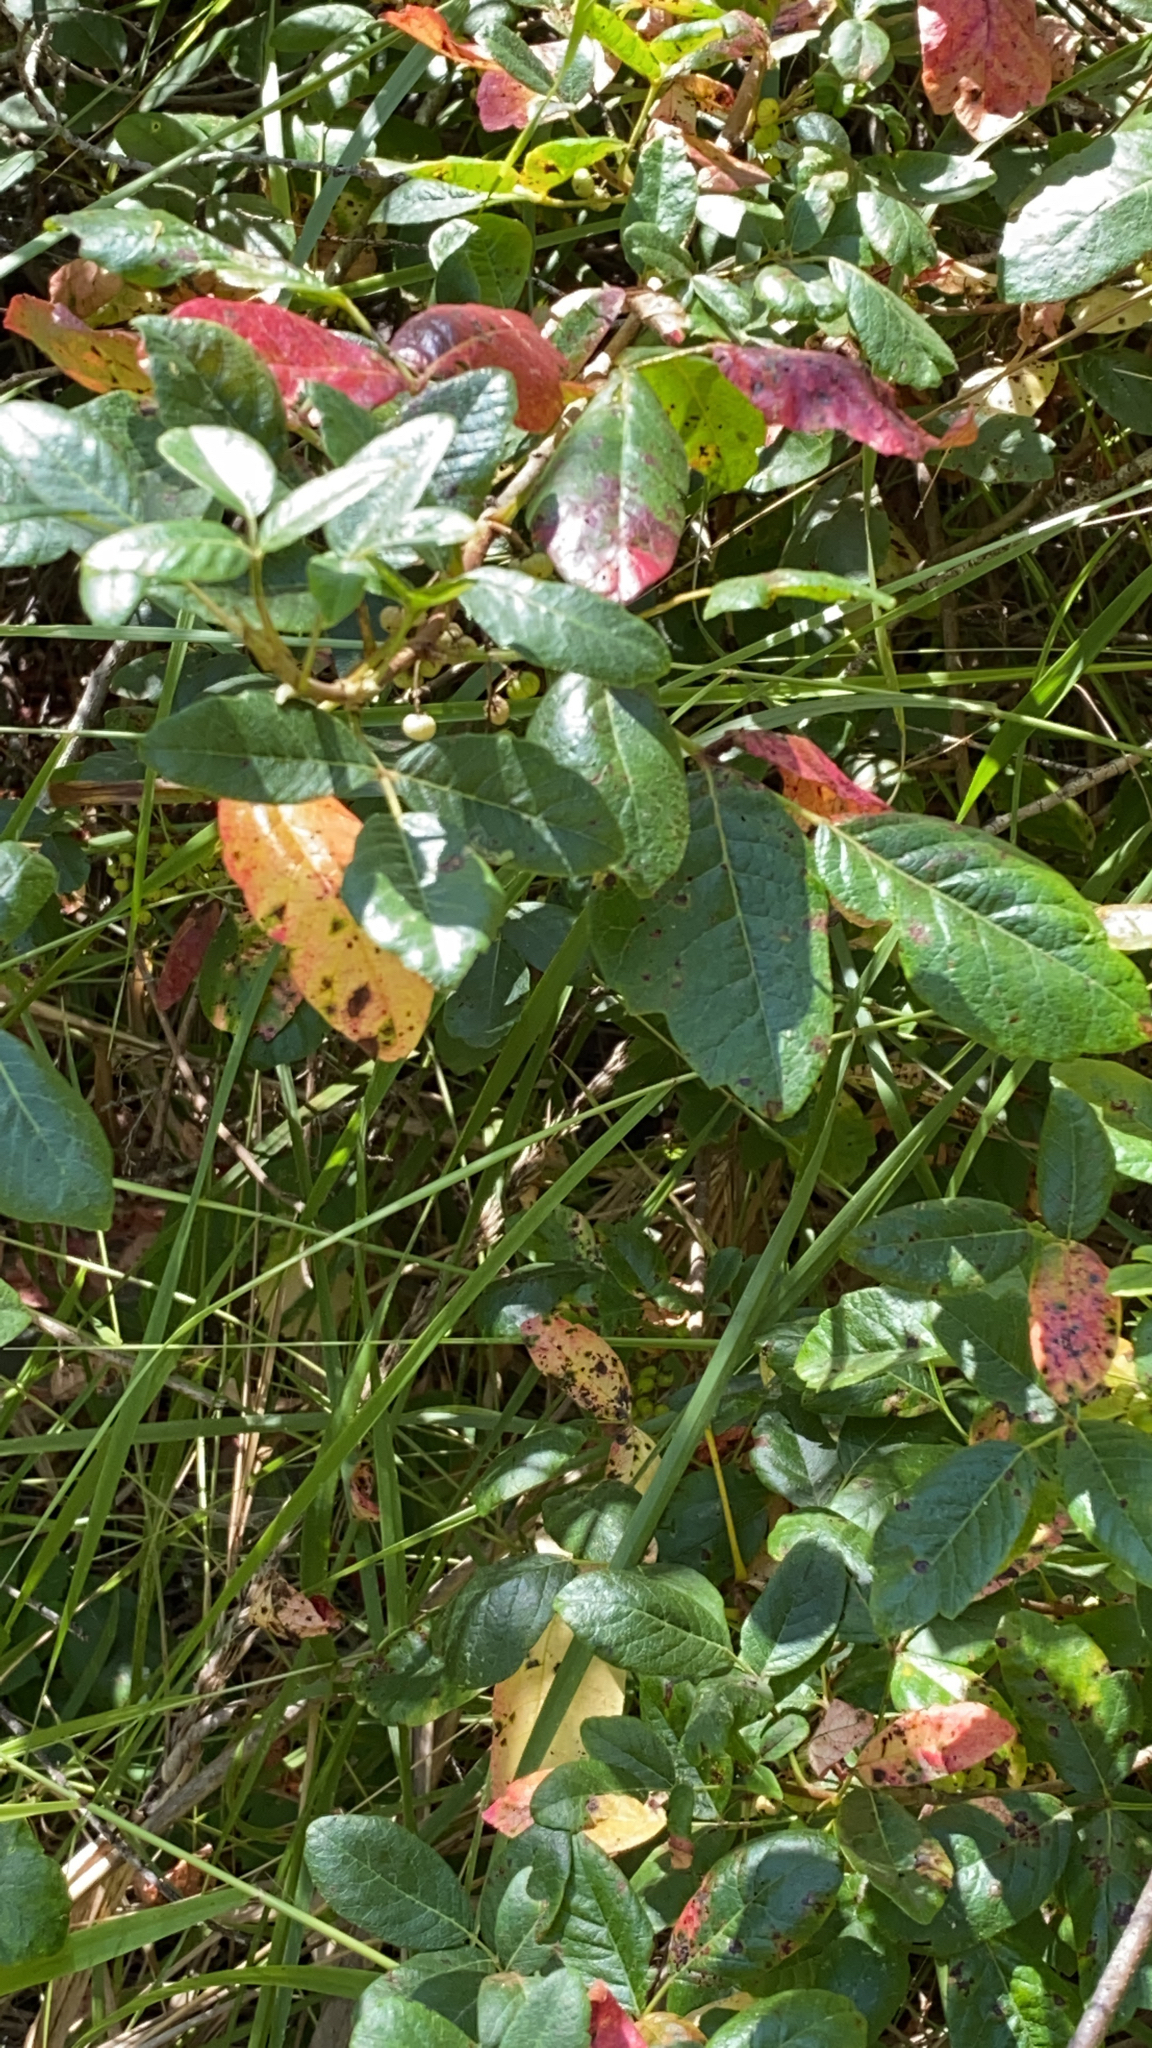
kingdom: Plantae
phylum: Tracheophyta
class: Magnoliopsida
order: Sapindales
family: Anacardiaceae
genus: Toxicodendron
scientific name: Toxicodendron diversilobum
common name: Pacific poison-oak
